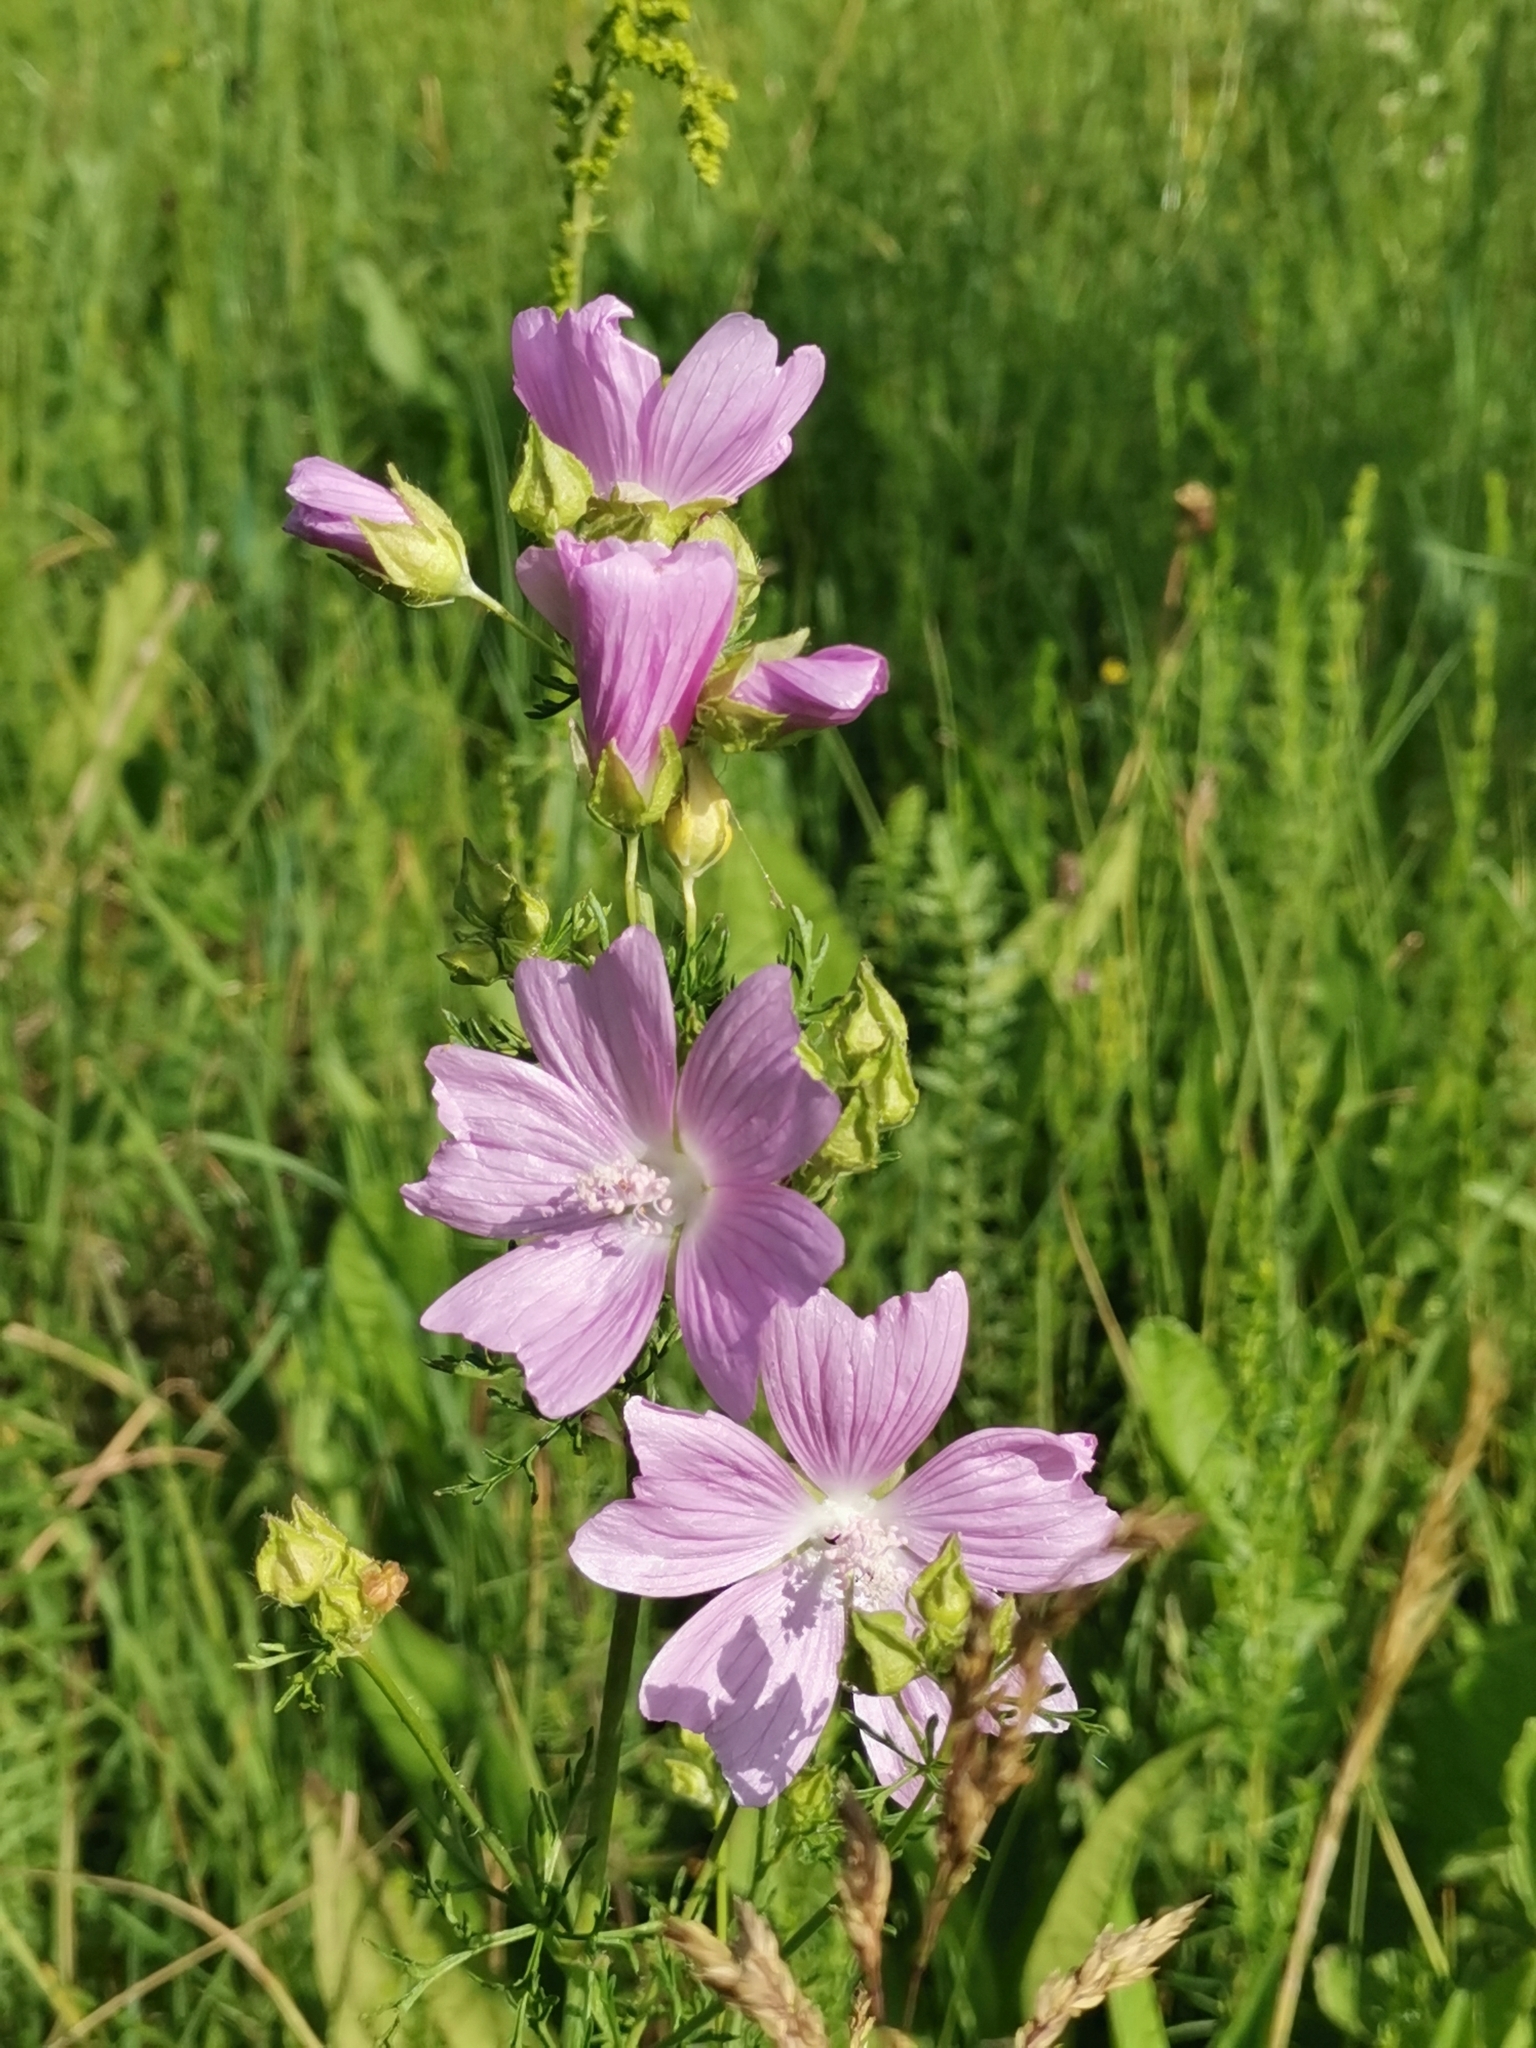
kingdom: Plantae
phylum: Tracheophyta
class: Magnoliopsida
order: Malvales
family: Malvaceae
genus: Malva
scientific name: Malva moschata
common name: Musk mallow
